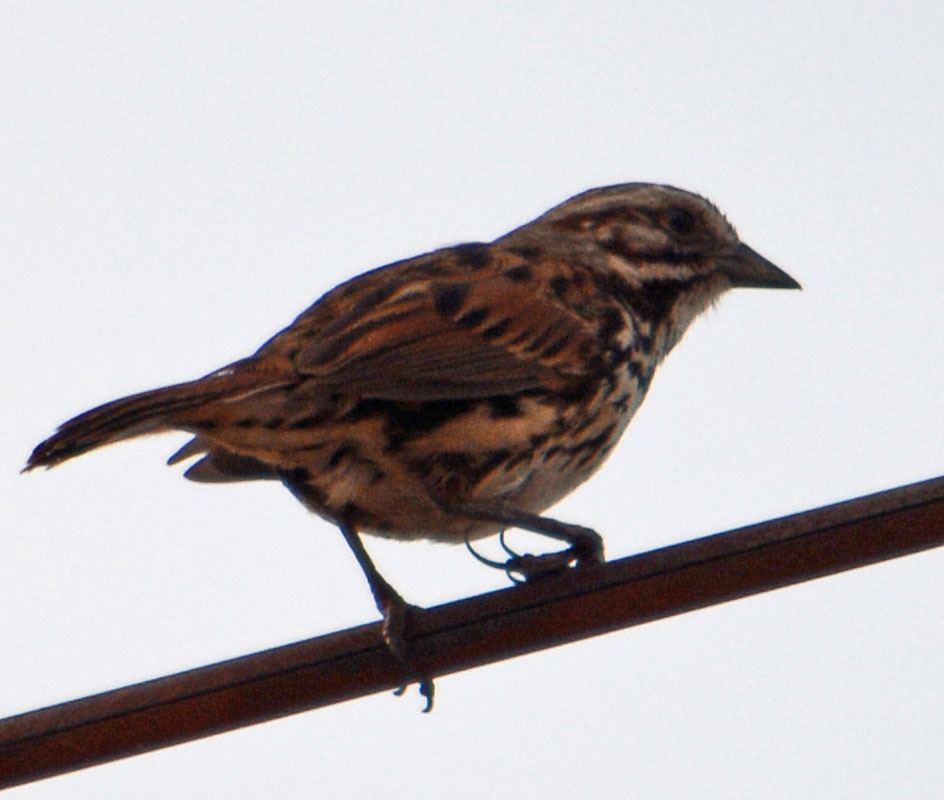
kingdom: Animalia
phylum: Chordata
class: Aves
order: Passeriformes
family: Passerellidae
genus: Melospiza
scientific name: Melospiza melodia
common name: Song sparrow
